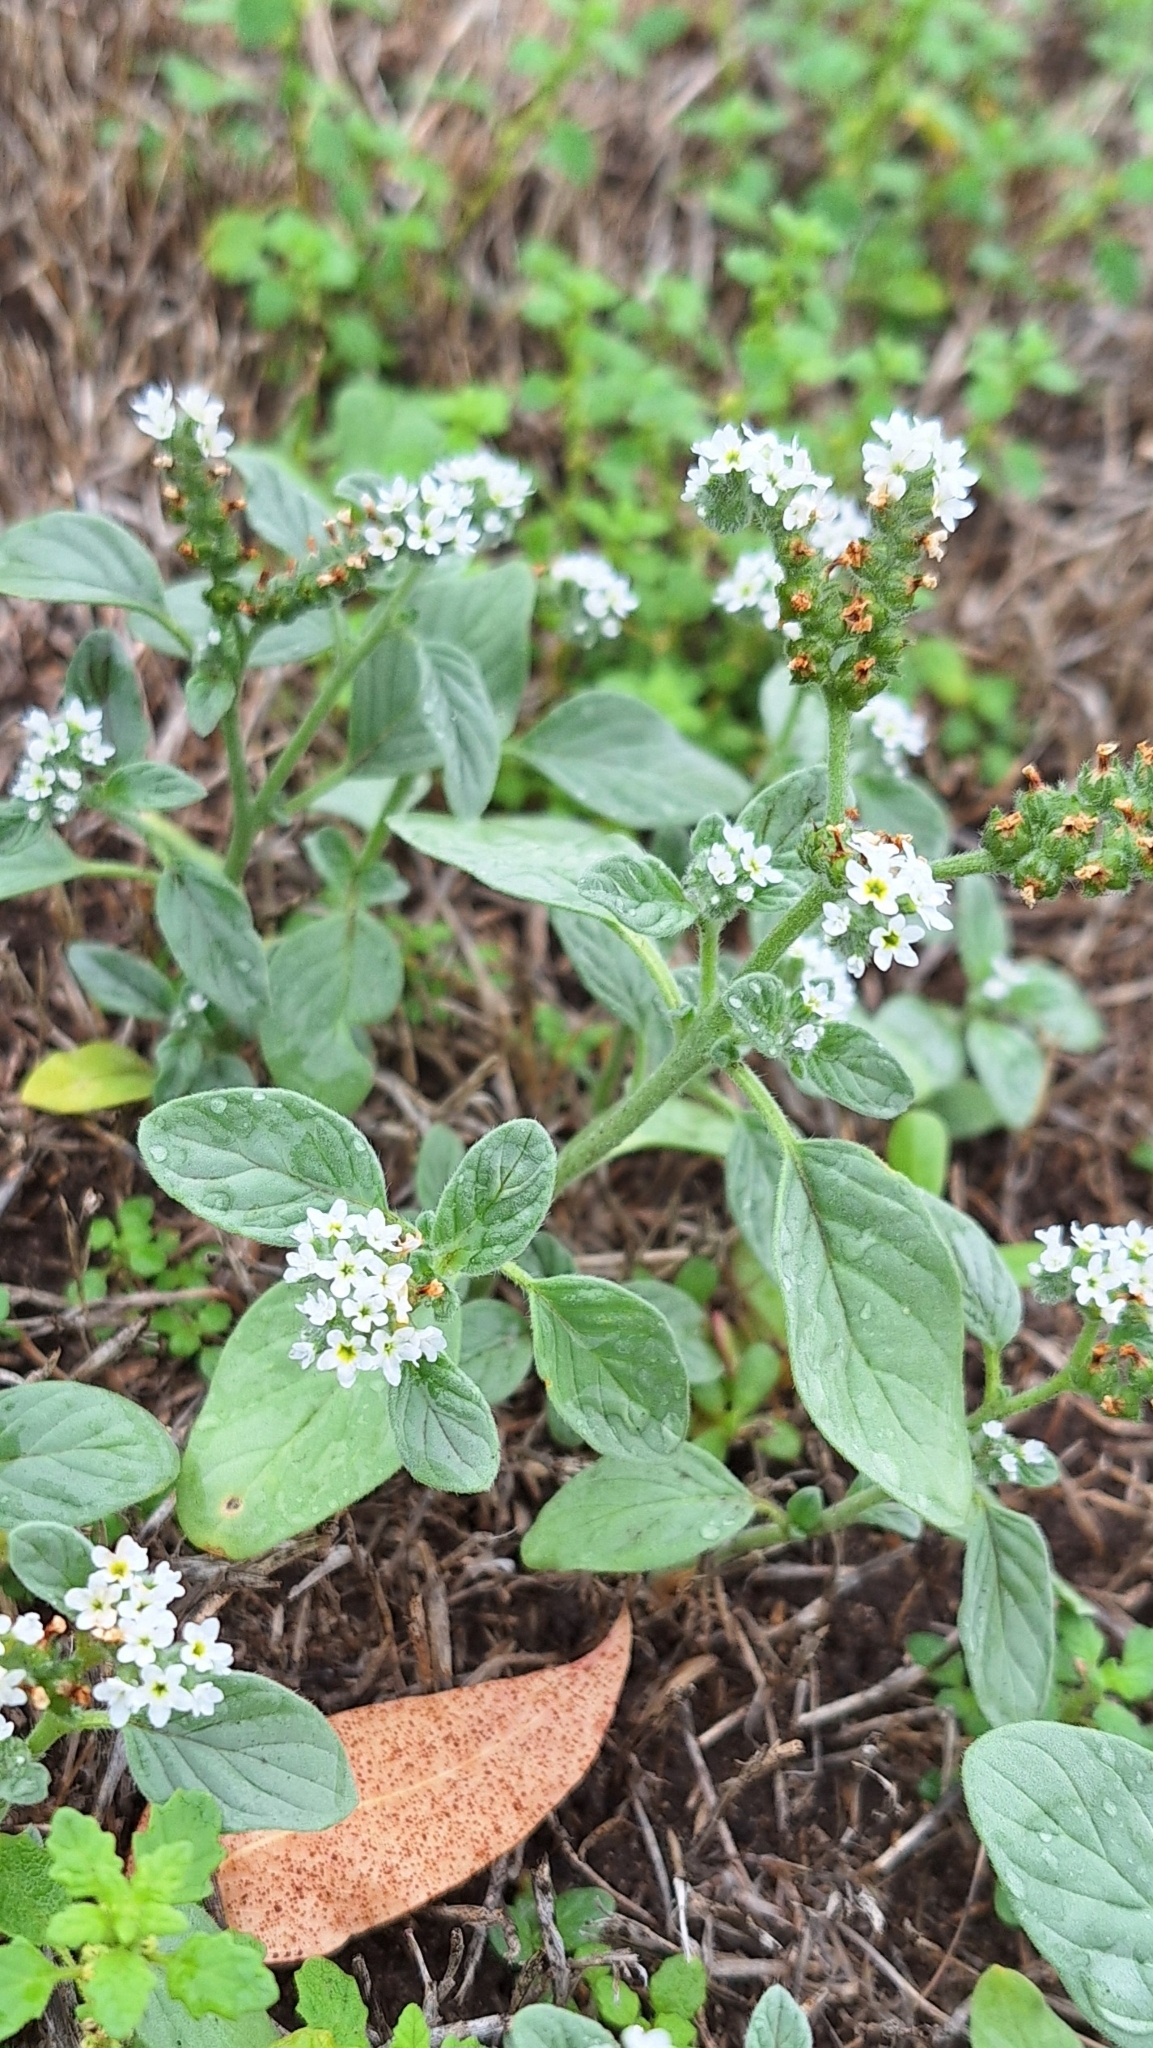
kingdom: Plantae
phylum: Tracheophyta
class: Magnoliopsida
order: Boraginales
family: Heliotropiaceae
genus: Heliotropium
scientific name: Heliotropium europaeum
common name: European heliotrope
